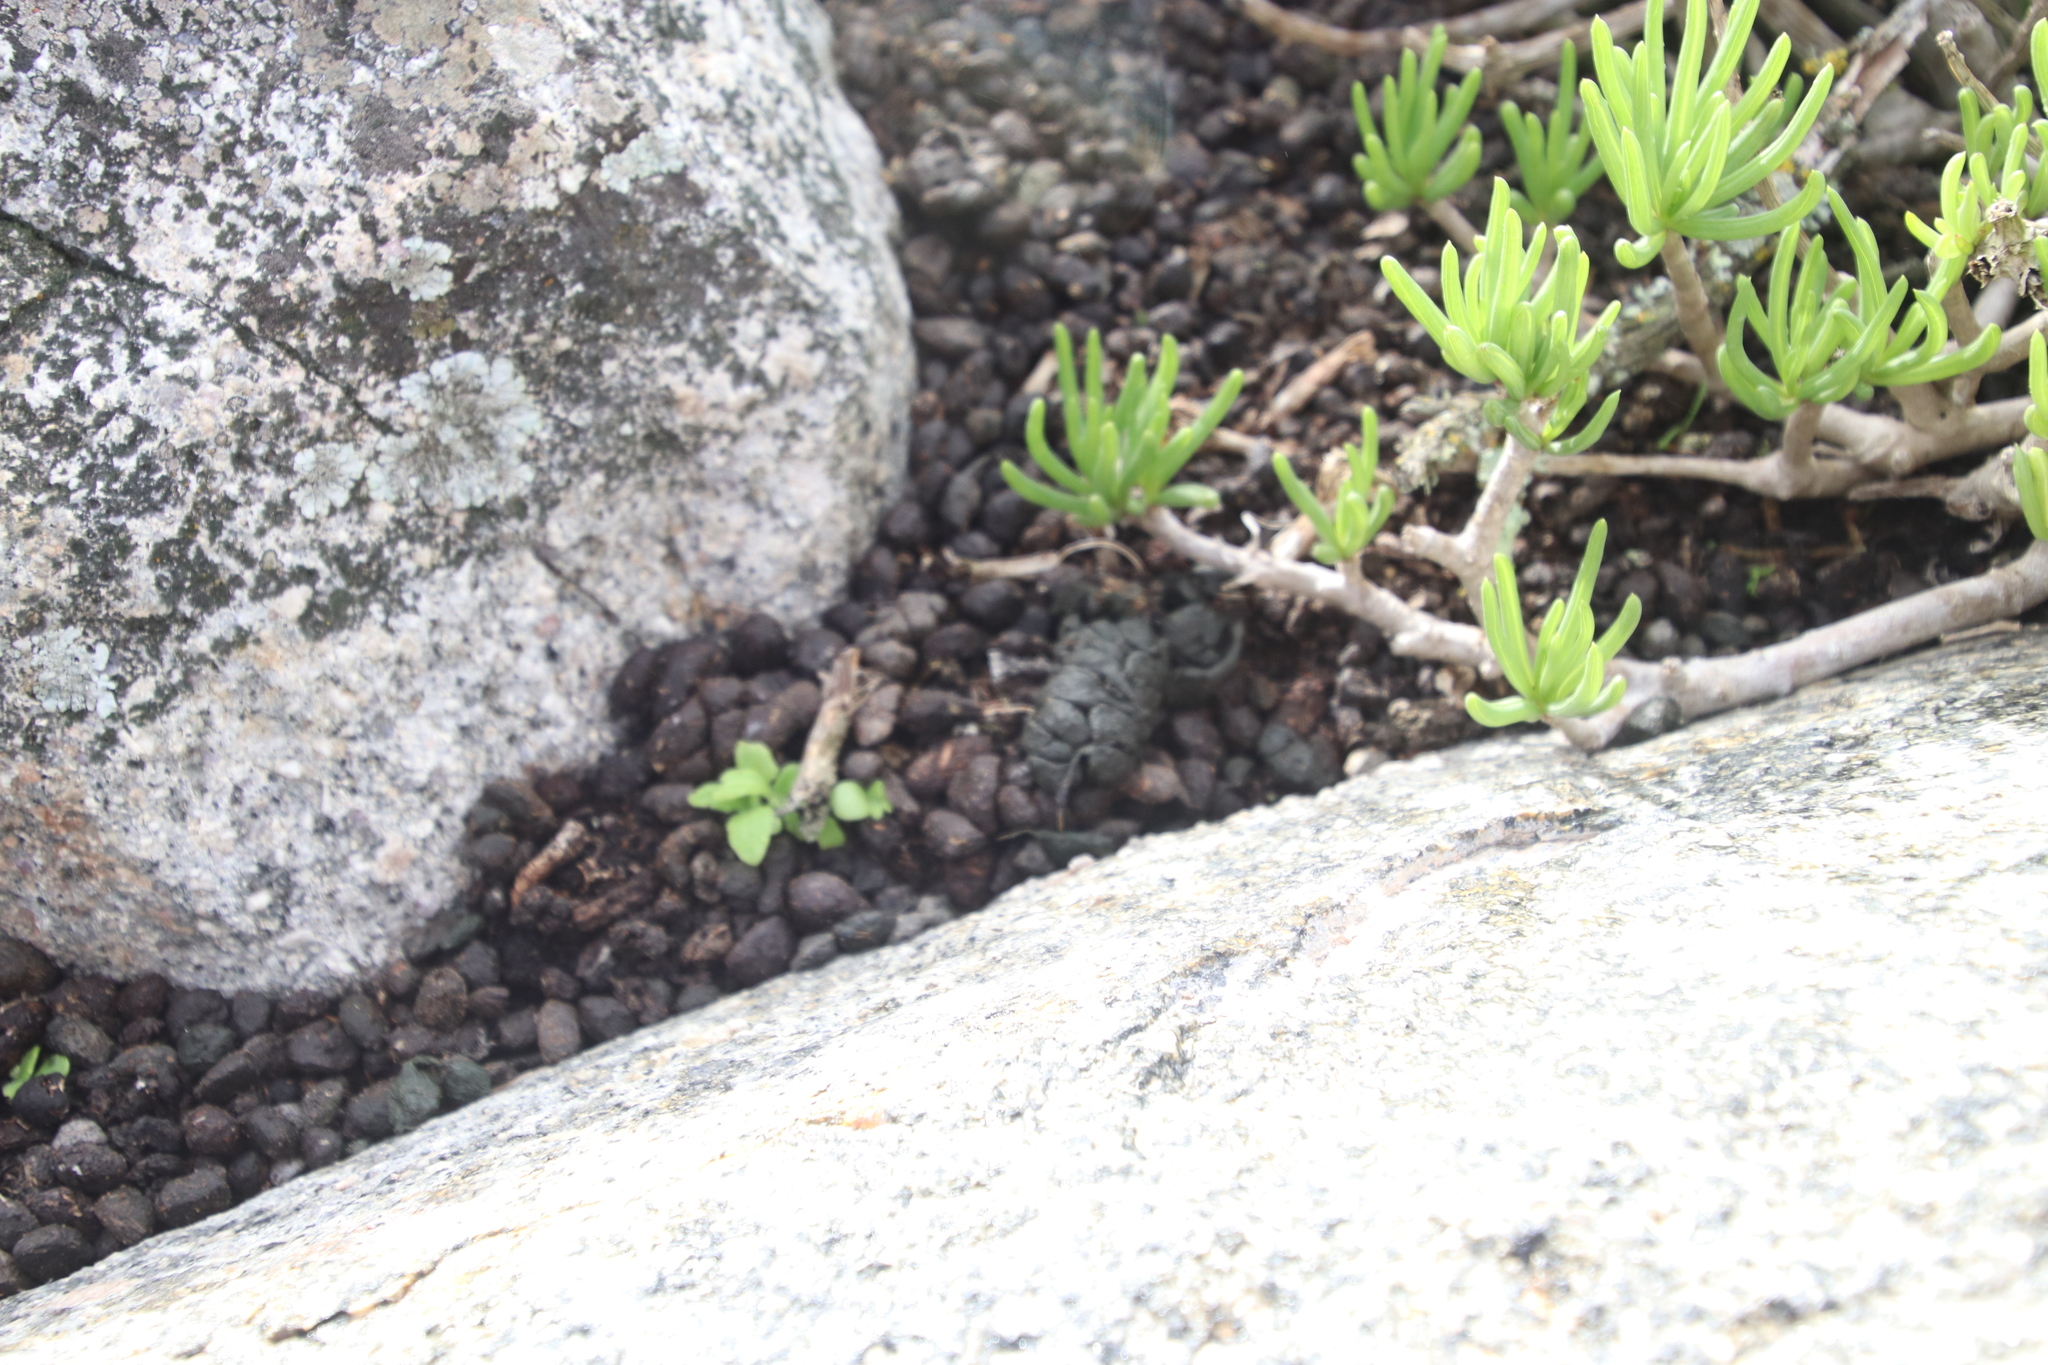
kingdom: Animalia
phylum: Chordata
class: Mammalia
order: Hyracoidea
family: Procaviidae
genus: Procavia
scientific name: Procavia capensis
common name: Rock hyrax
